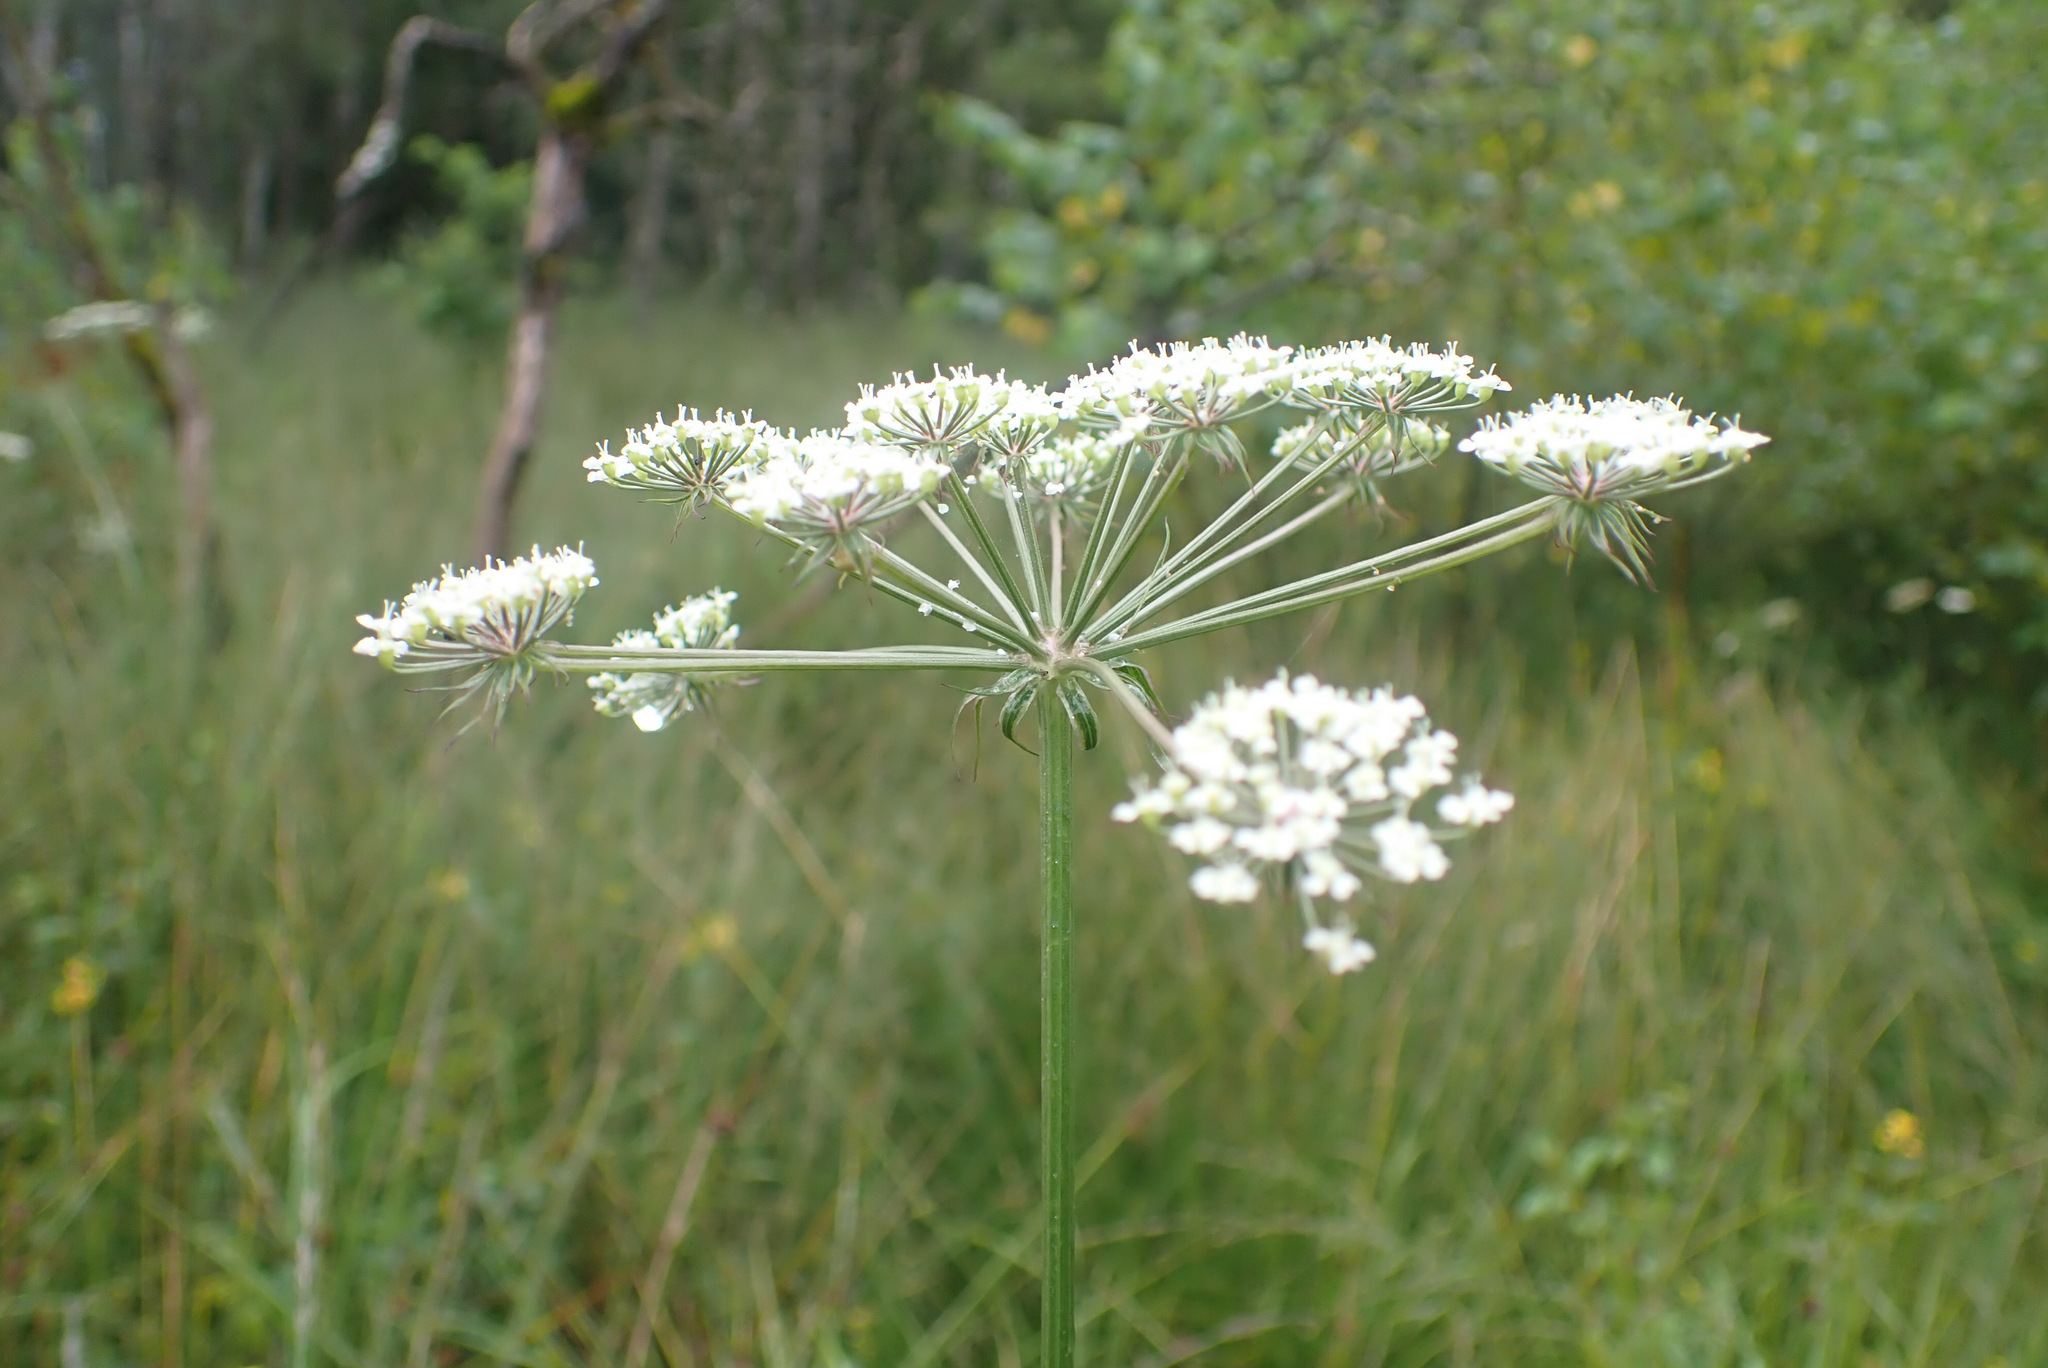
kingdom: Plantae
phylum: Tracheophyta
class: Magnoliopsida
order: Apiales
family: Apiaceae
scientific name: Apiaceae
